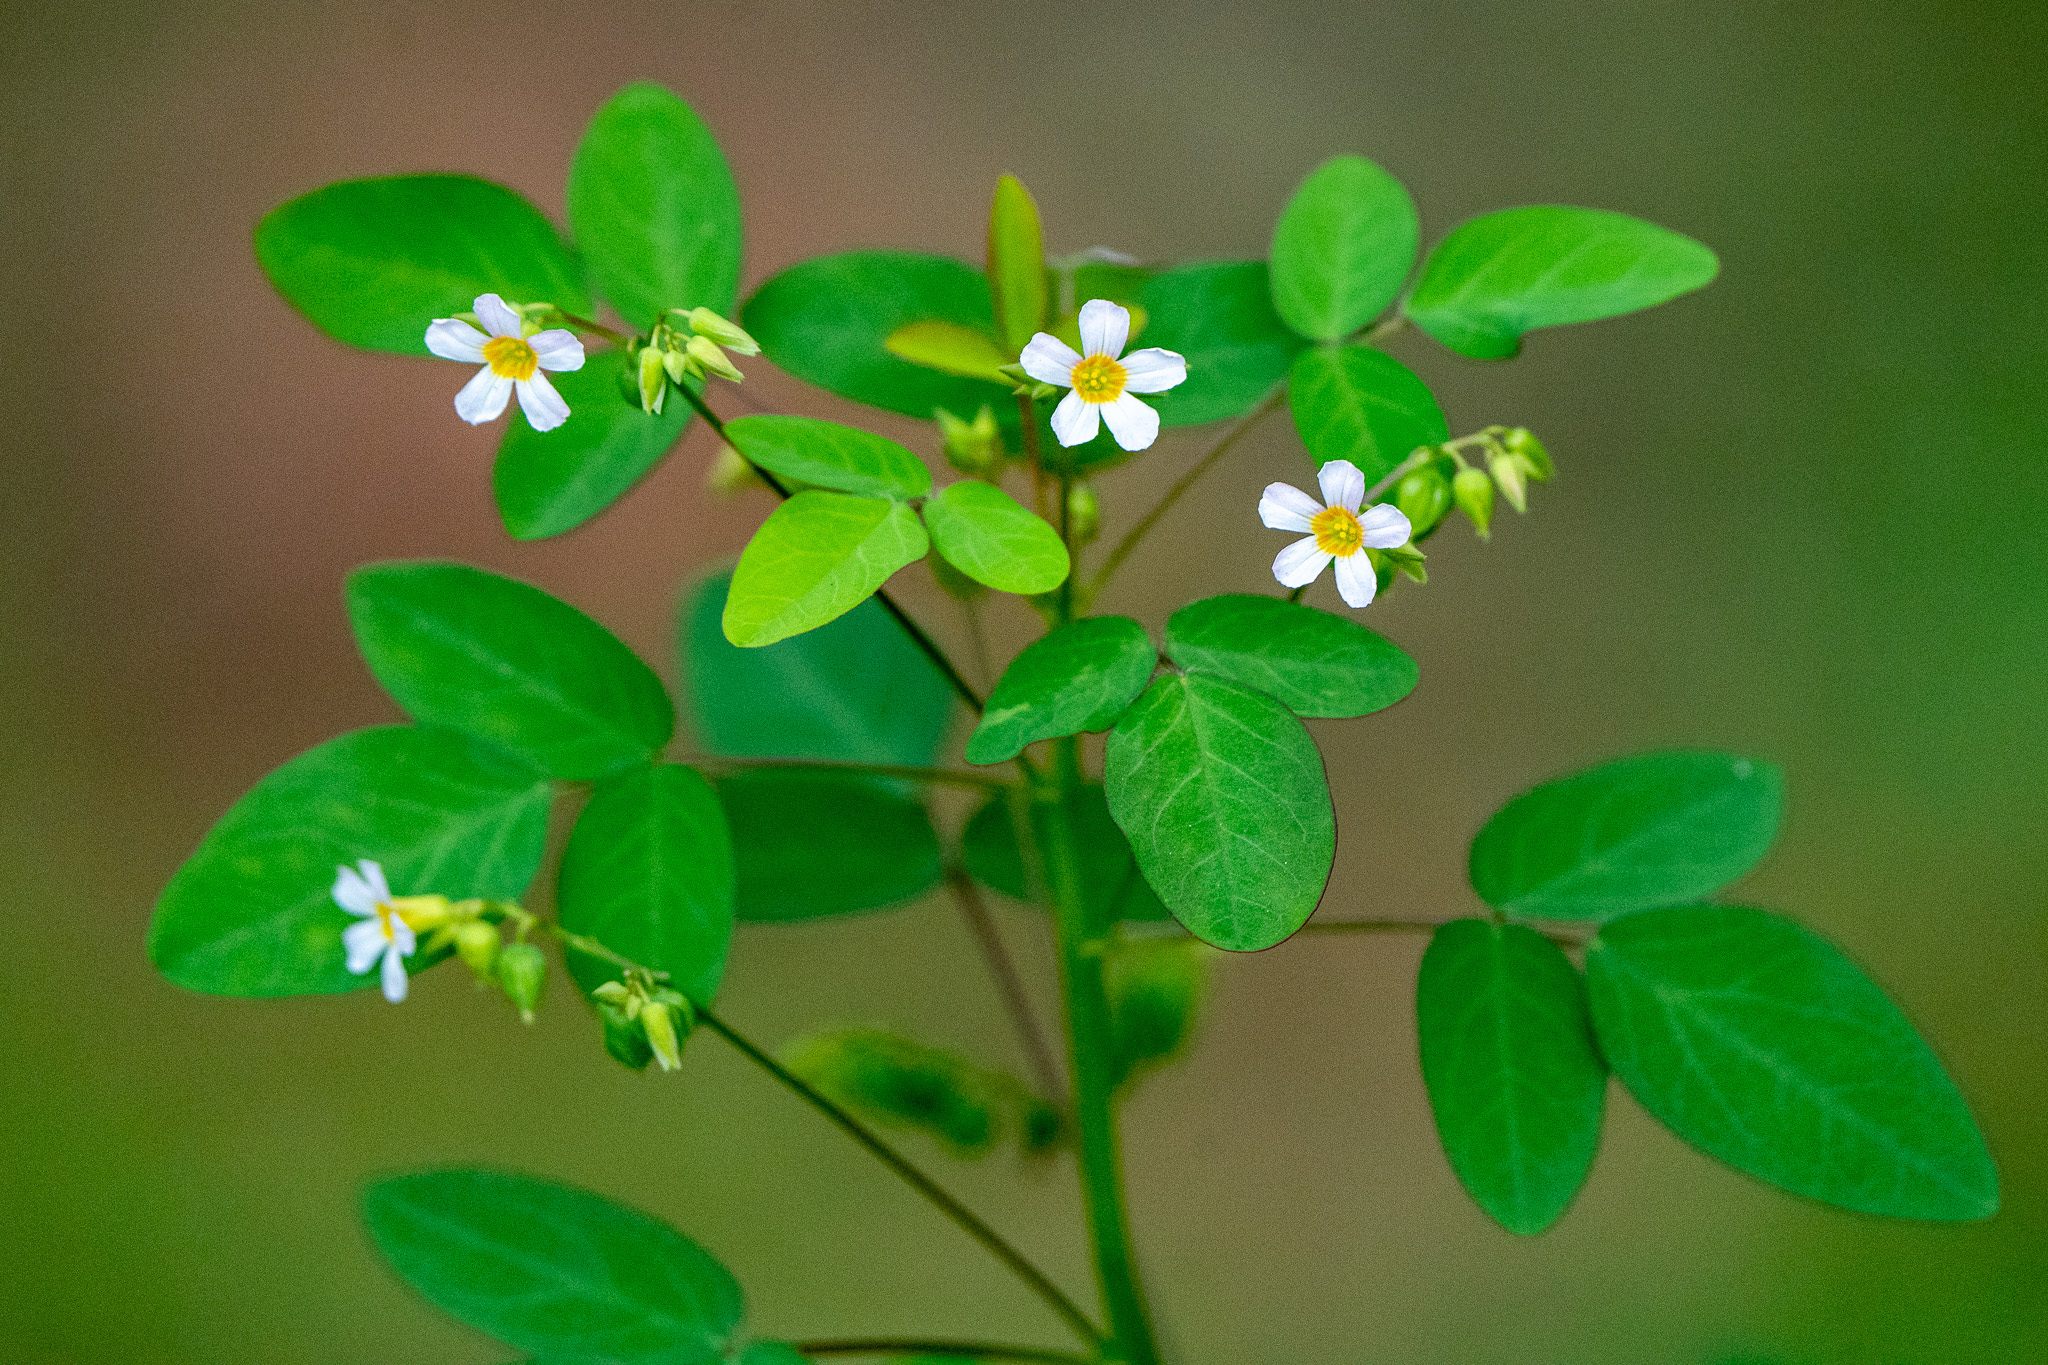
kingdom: Plantae
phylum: Tracheophyta
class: Magnoliopsida
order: Oxalidales
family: Oxalidaceae
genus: Oxalis
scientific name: Oxalis barrelieri
